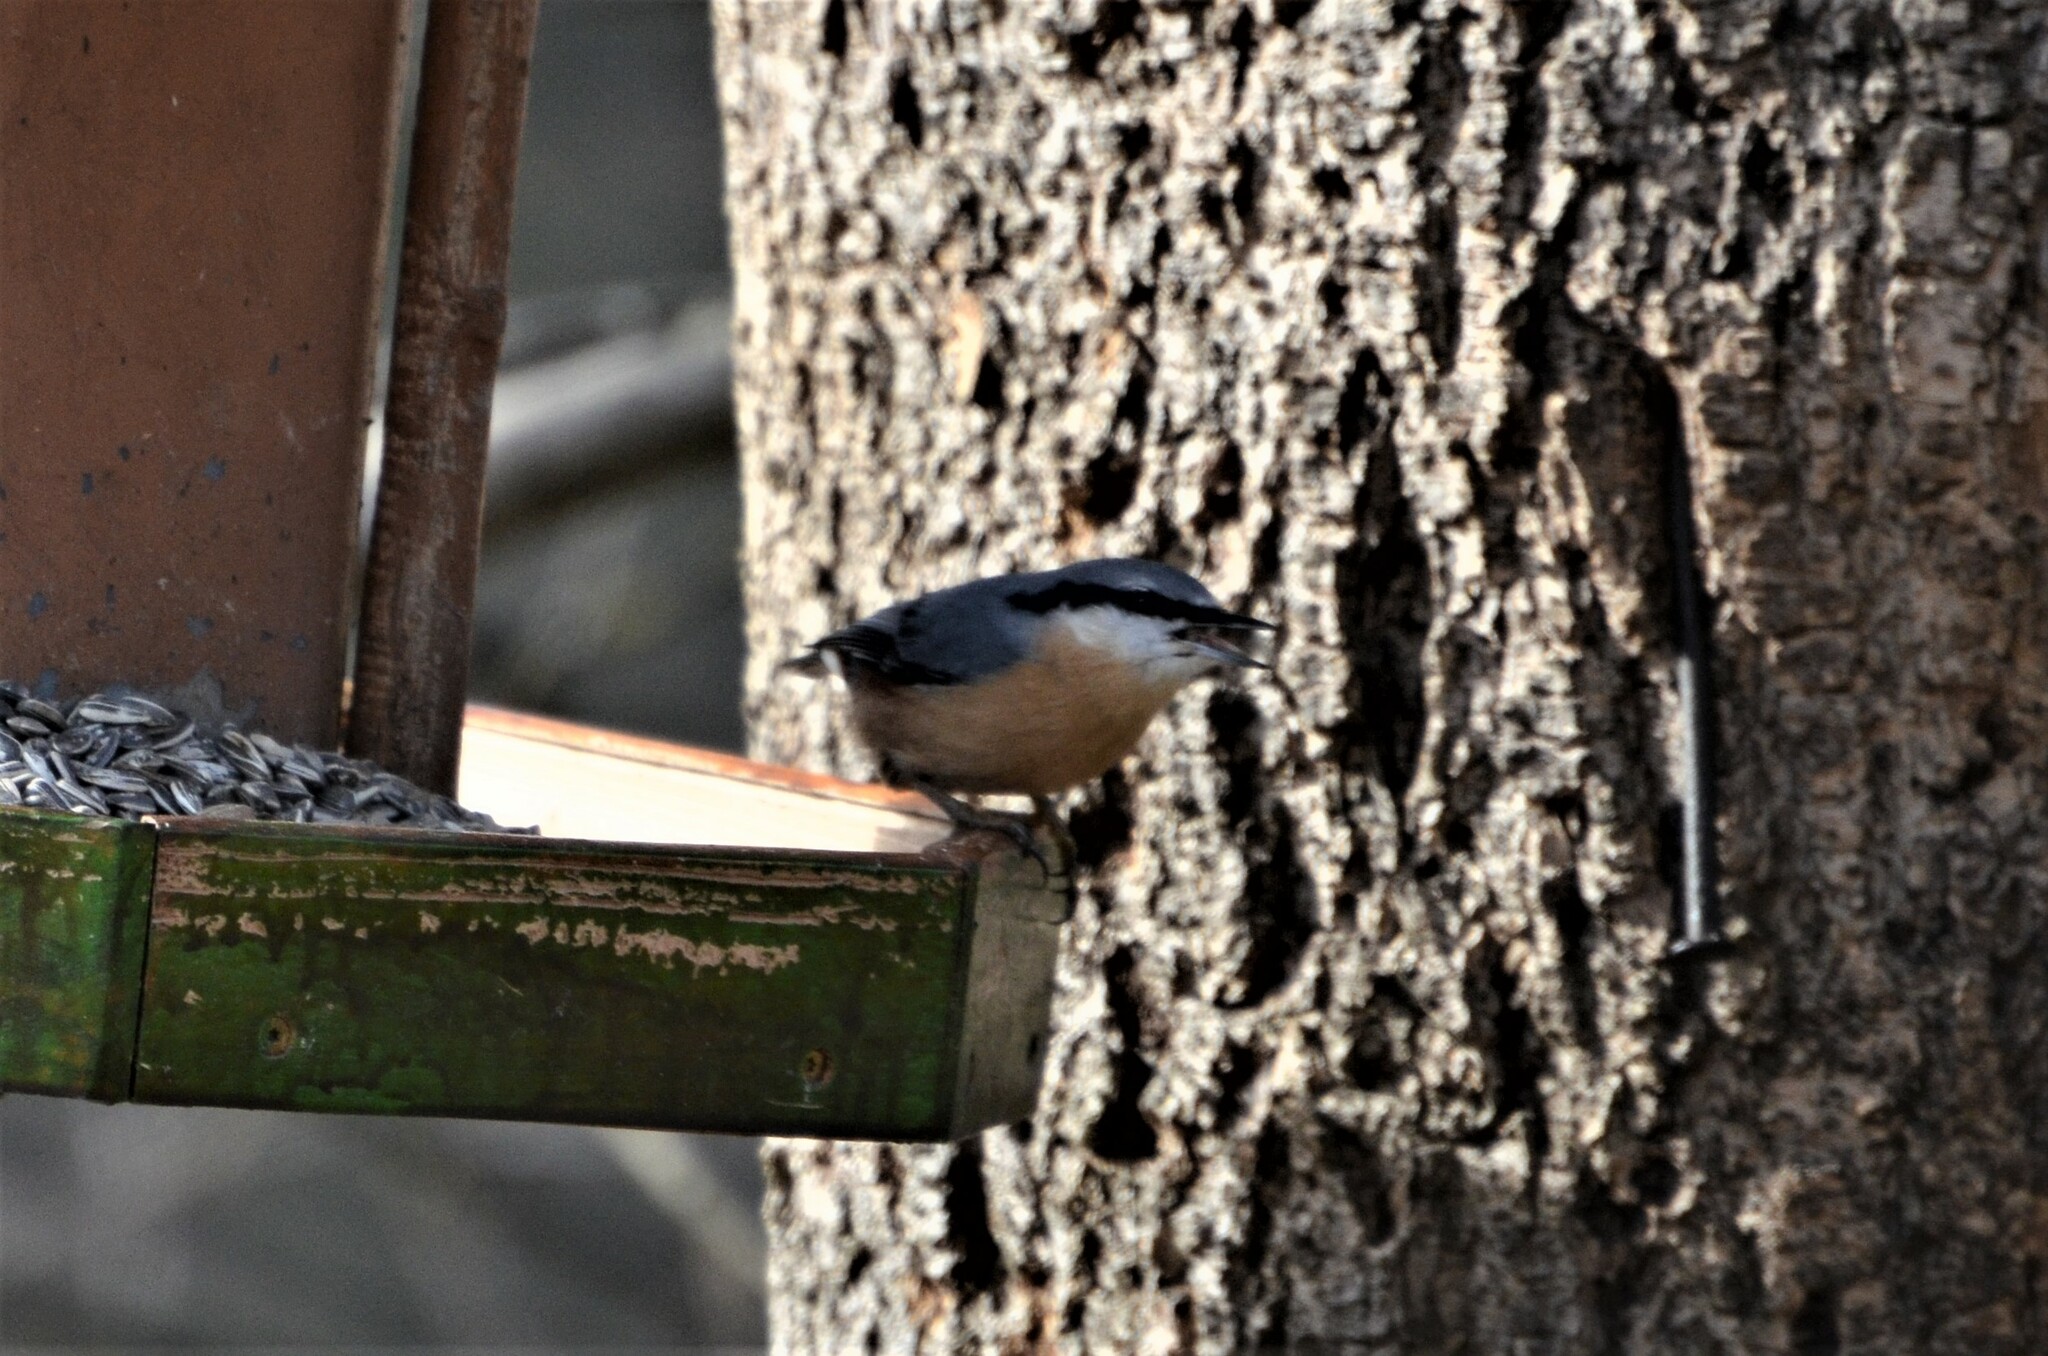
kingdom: Animalia
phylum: Chordata
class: Aves
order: Passeriformes
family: Sittidae
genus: Sitta
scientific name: Sitta europaea
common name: Eurasian nuthatch
